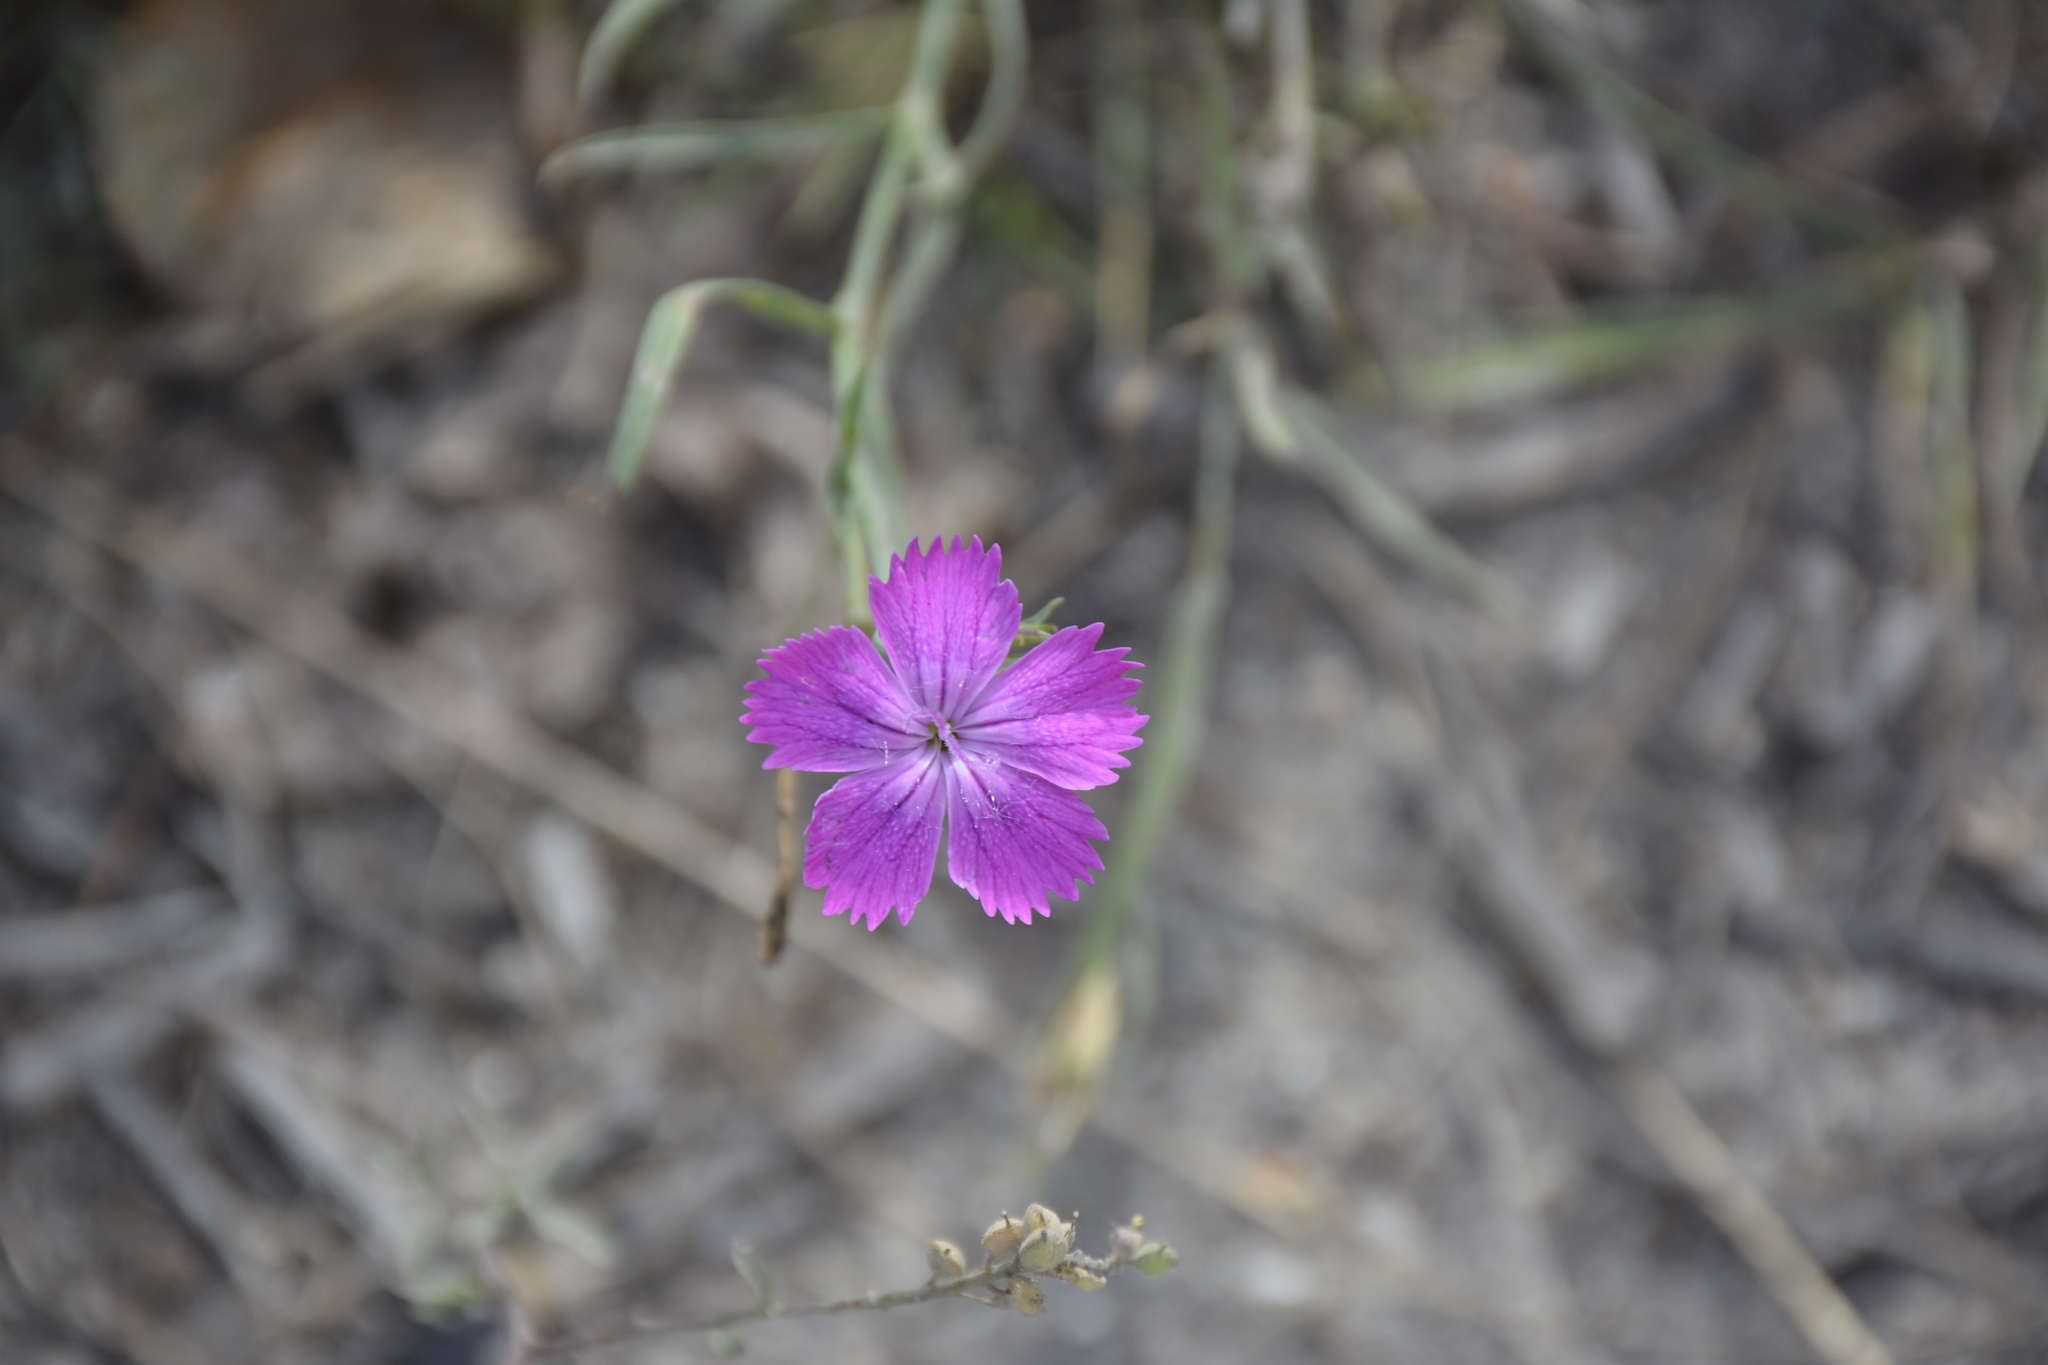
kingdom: Plantae
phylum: Tracheophyta
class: Magnoliopsida
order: Caryophyllales
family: Caryophyllaceae
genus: Dianthus
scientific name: Dianthus chinensis
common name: Rainbow pink
